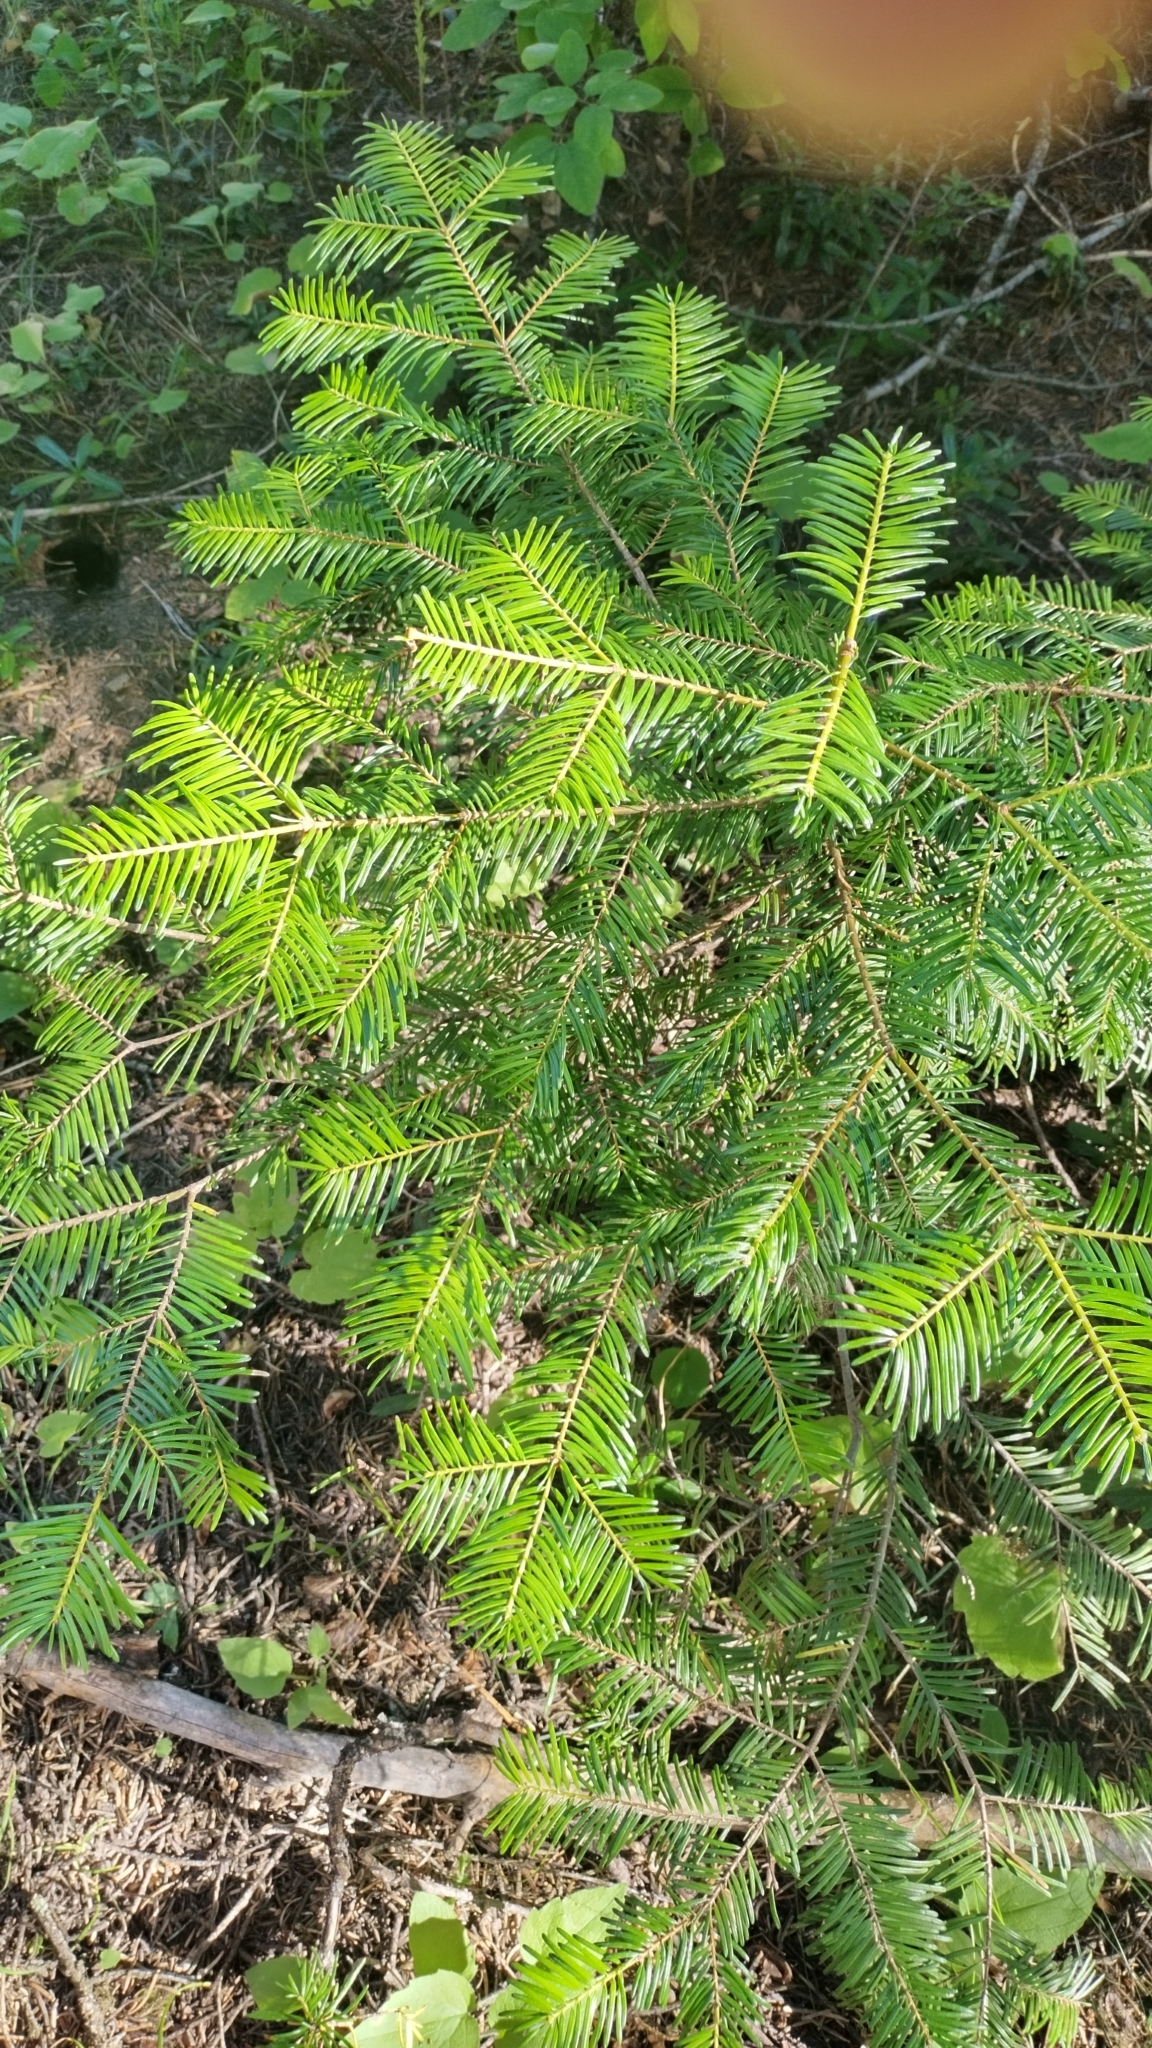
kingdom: Plantae
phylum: Tracheophyta
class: Pinopsida
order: Pinales
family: Pinaceae
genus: Abies
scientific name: Abies grandis
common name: Giant fir
